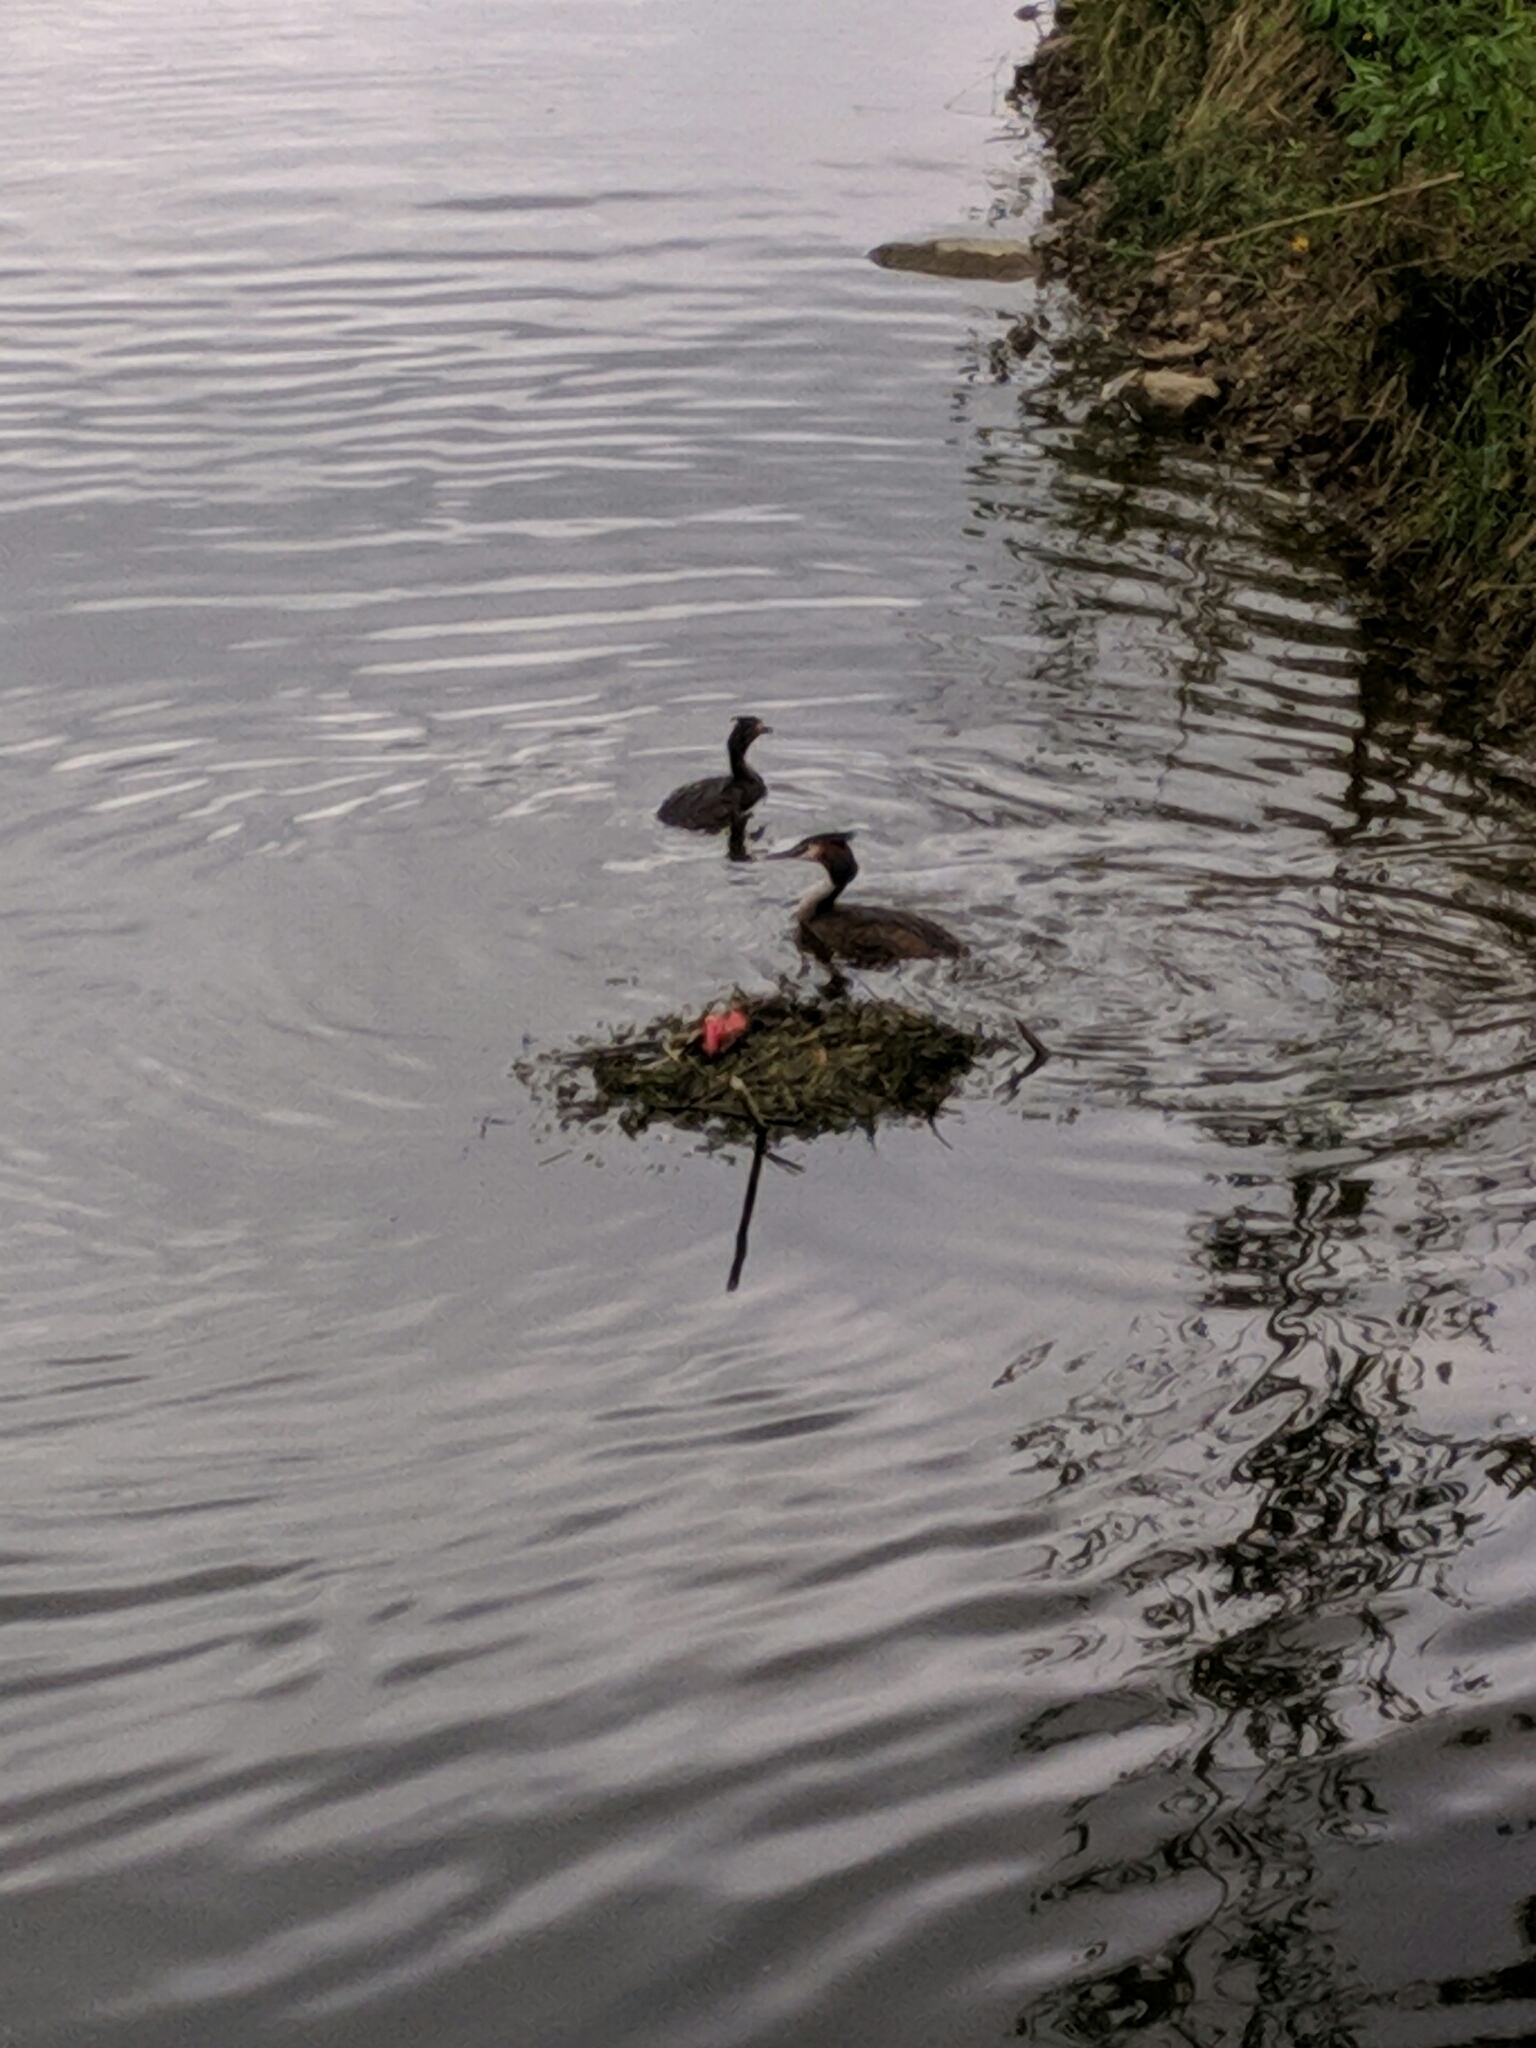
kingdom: Animalia
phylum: Chordata
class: Aves
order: Podicipediformes
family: Podicipedidae
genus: Podiceps
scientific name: Podiceps cristatus
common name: Great crested grebe
